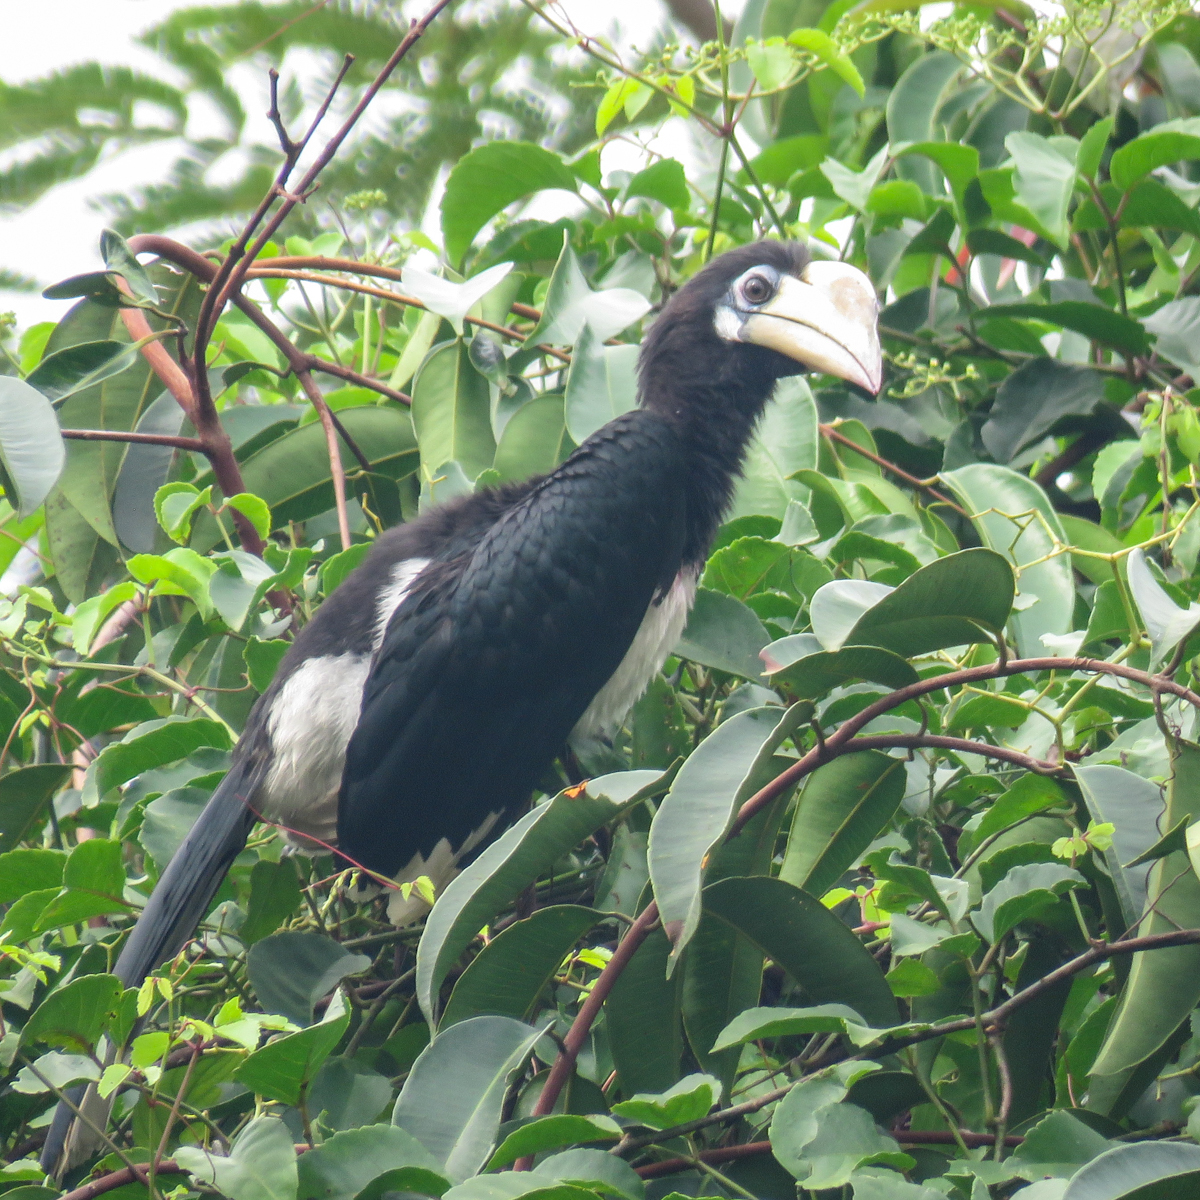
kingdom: Animalia
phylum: Chordata
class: Aves
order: Bucerotiformes
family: Bucerotidae
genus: Anthracoceros
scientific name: Anthracoceros albirostris
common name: Oriental pied-hornbill
